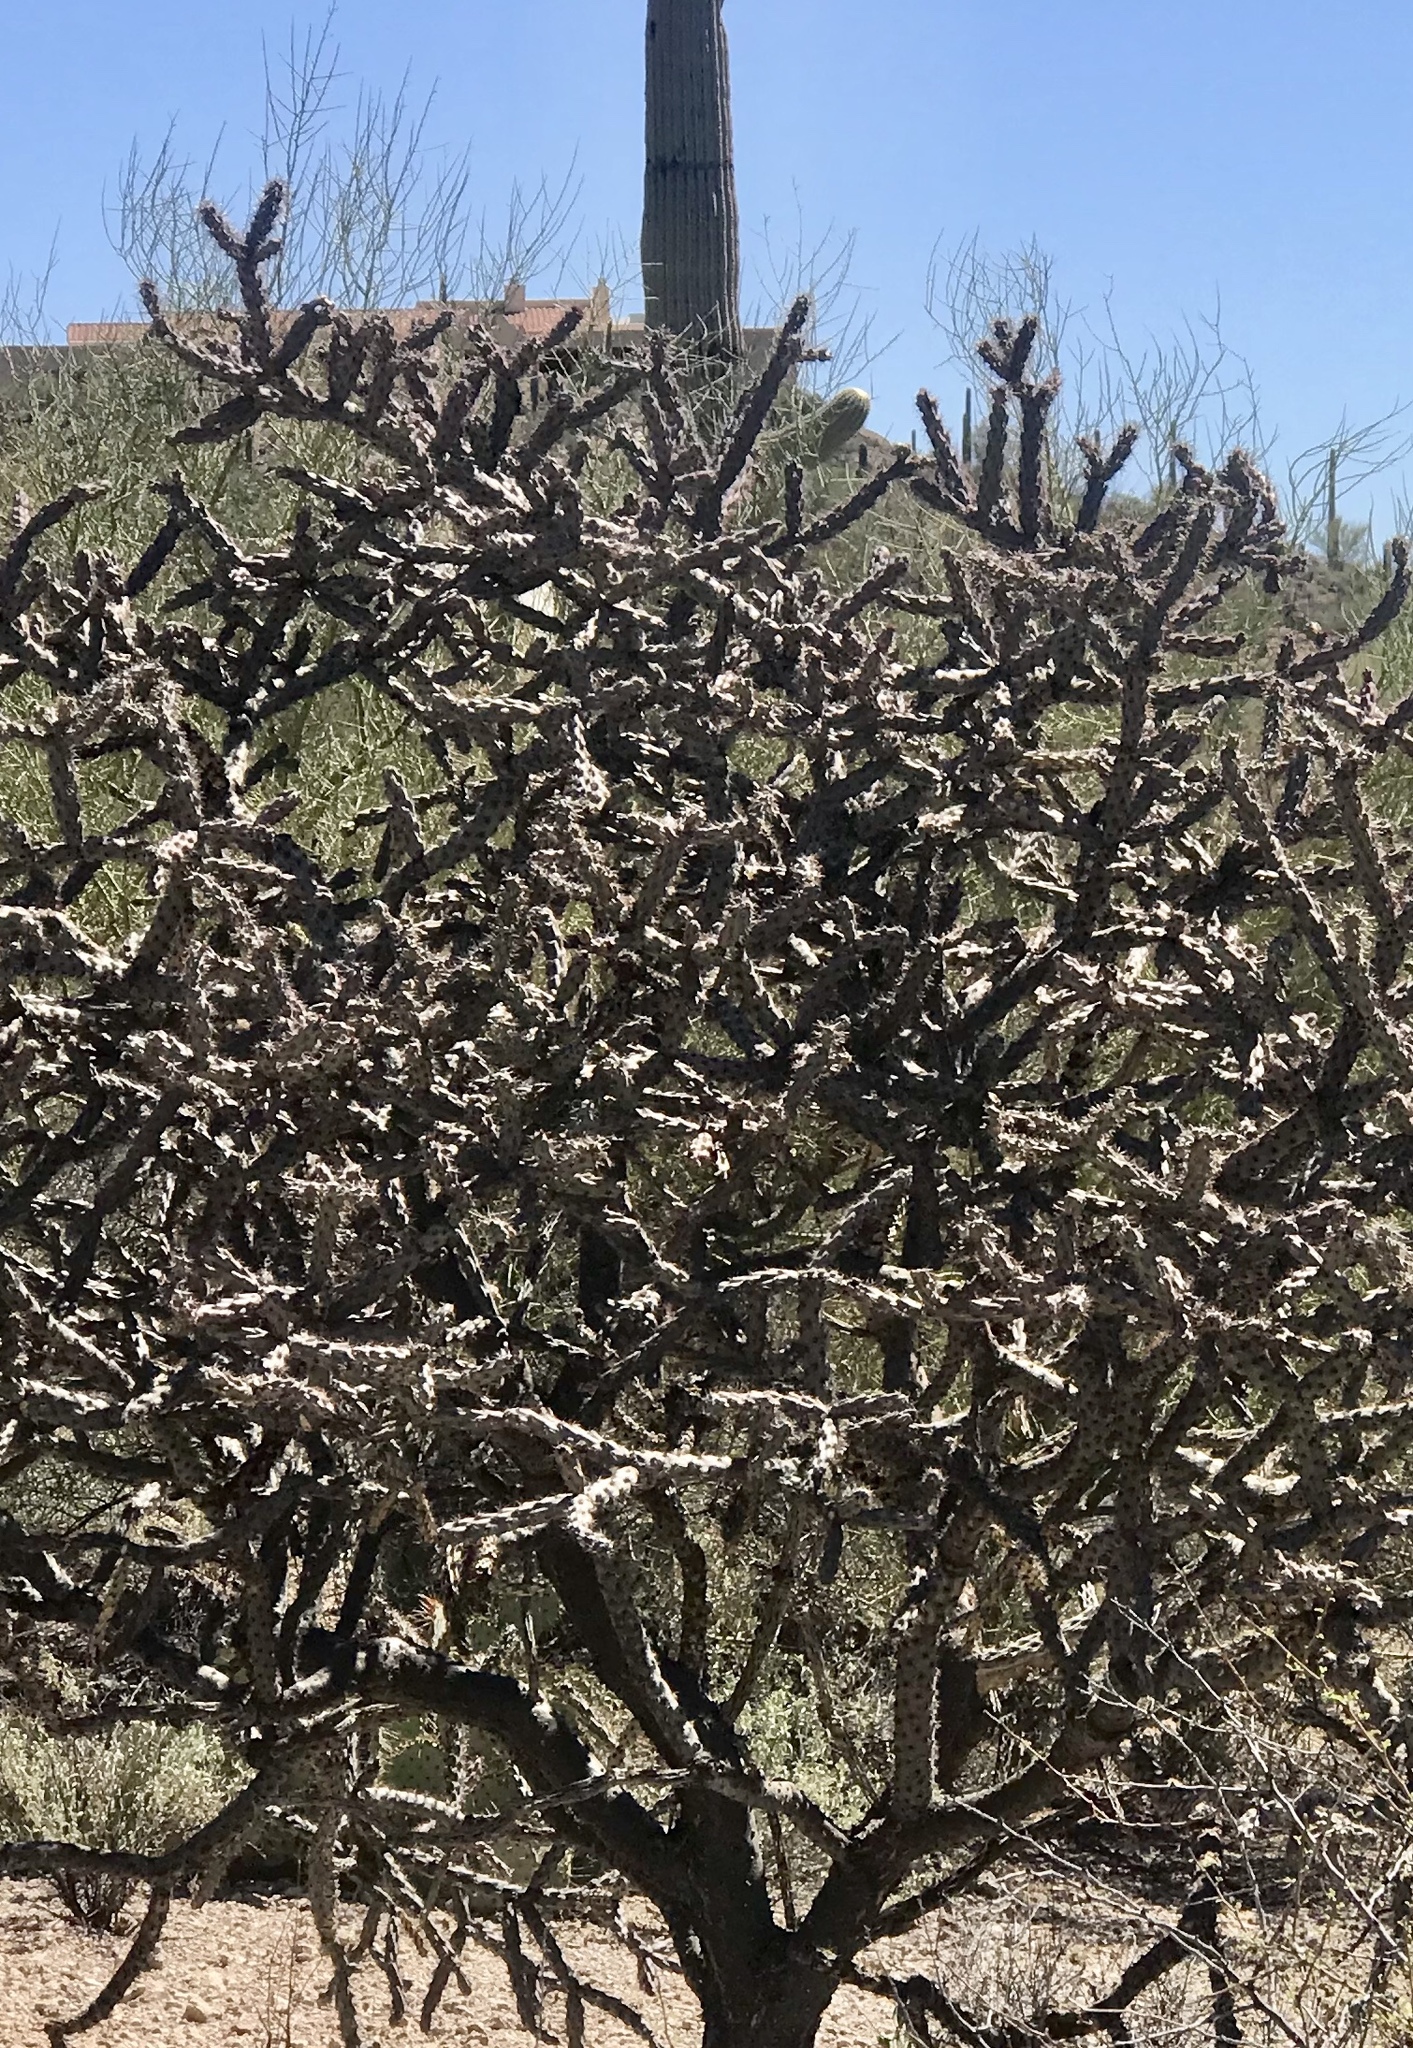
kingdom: Plantae
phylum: Tracheophyta
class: Magnoliopsida
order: Caryophyllales
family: Cactaceae
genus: Cylindropuntia
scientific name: Cylindropuntia thurberi
